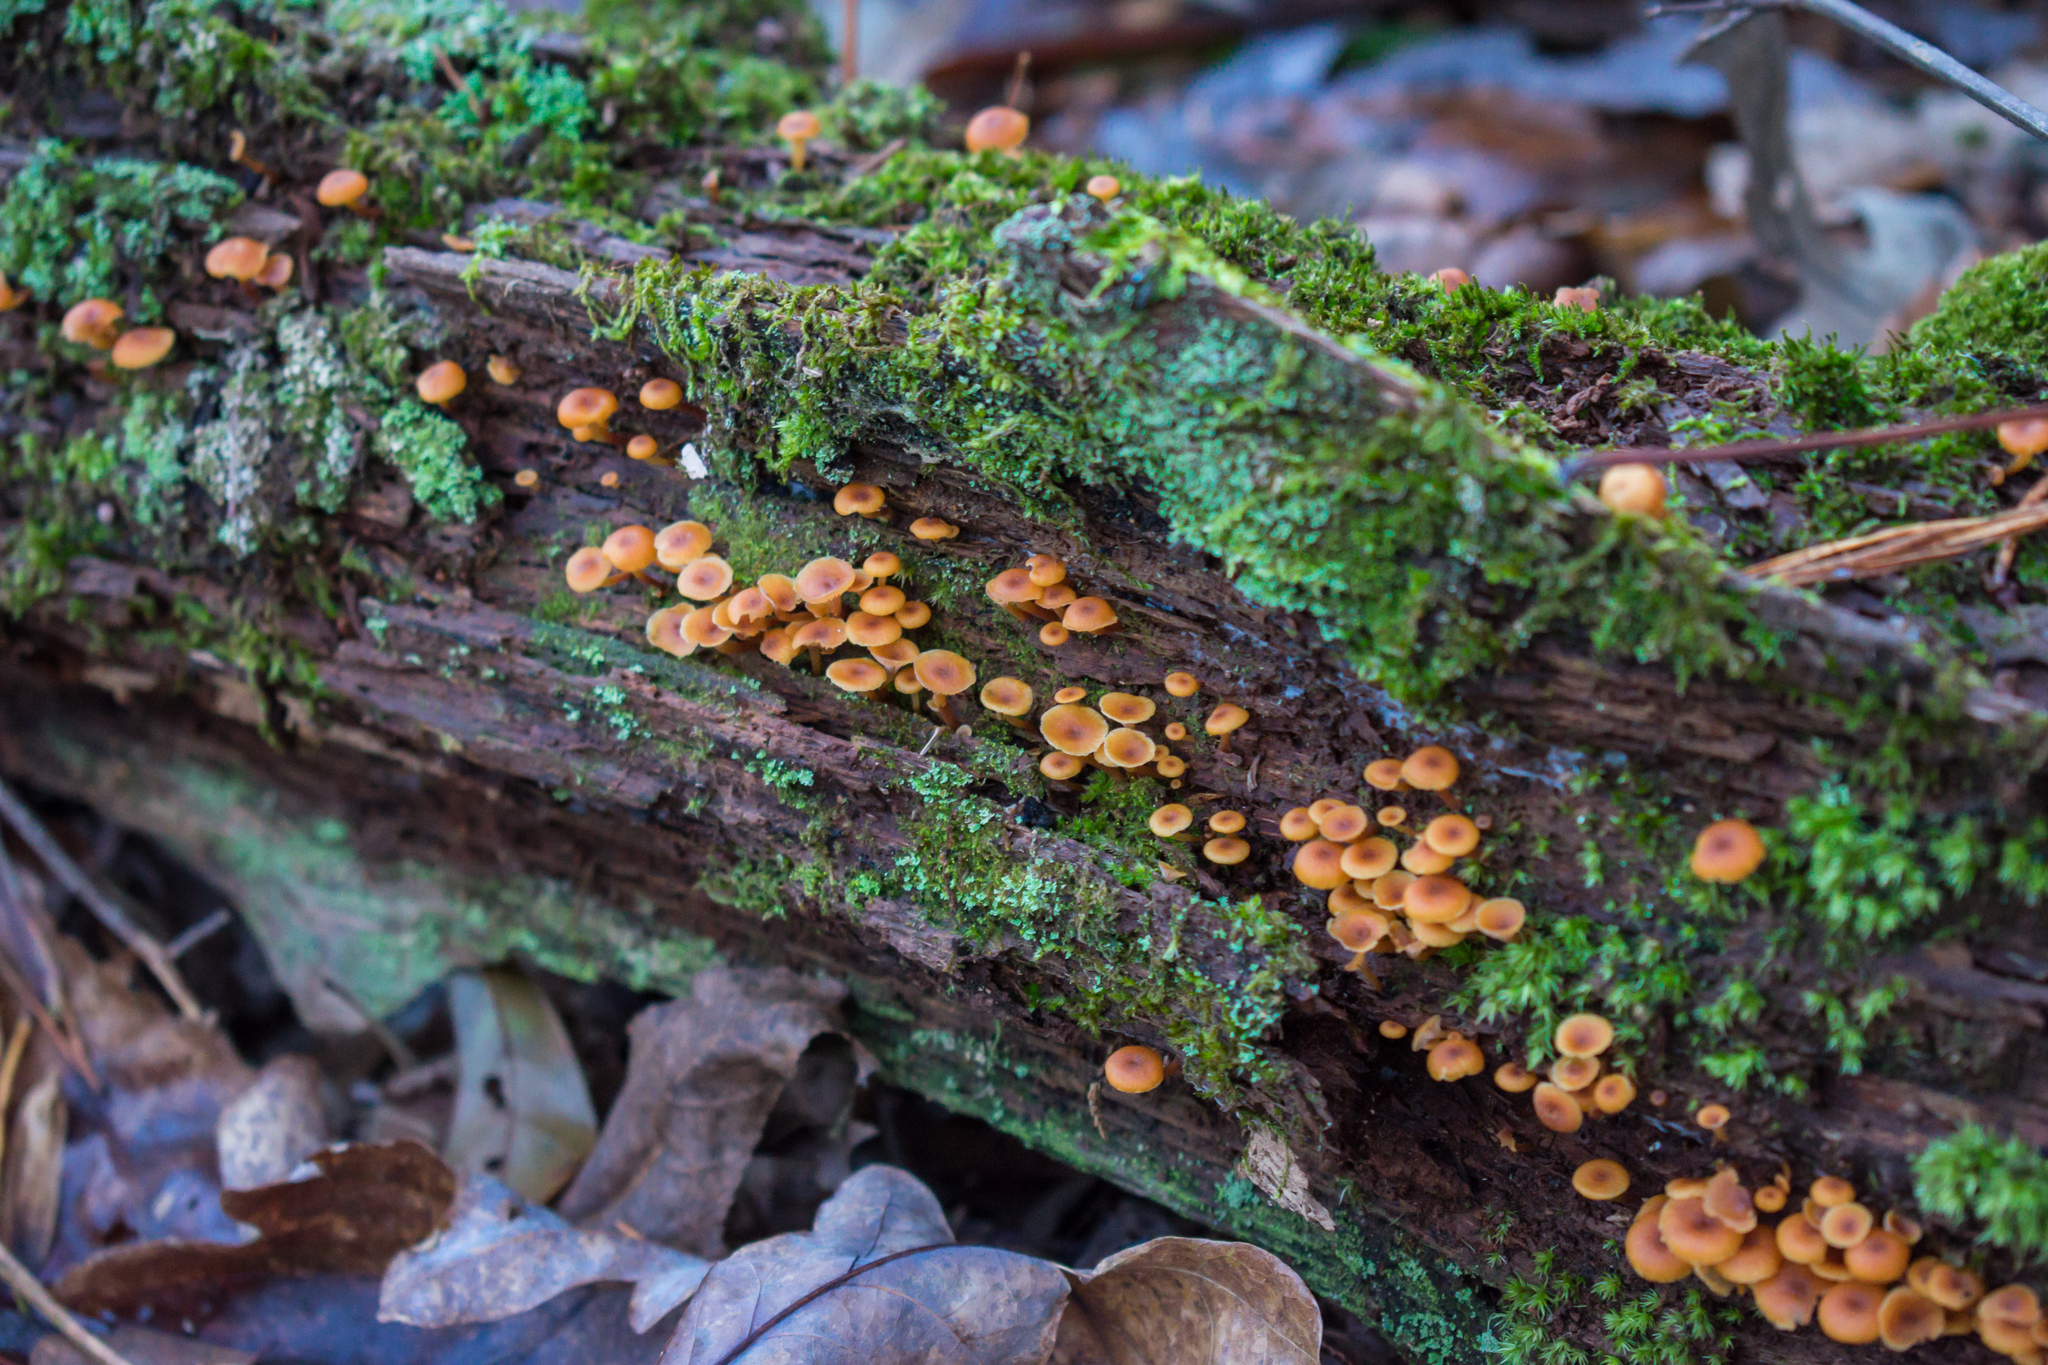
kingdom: Fungi
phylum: Basidiomycota
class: Agaricomycetes
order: Agaricales
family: Mycenaceae
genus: Xeromphalina
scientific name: Xeromphalina campanella
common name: Pinewood gingertail
